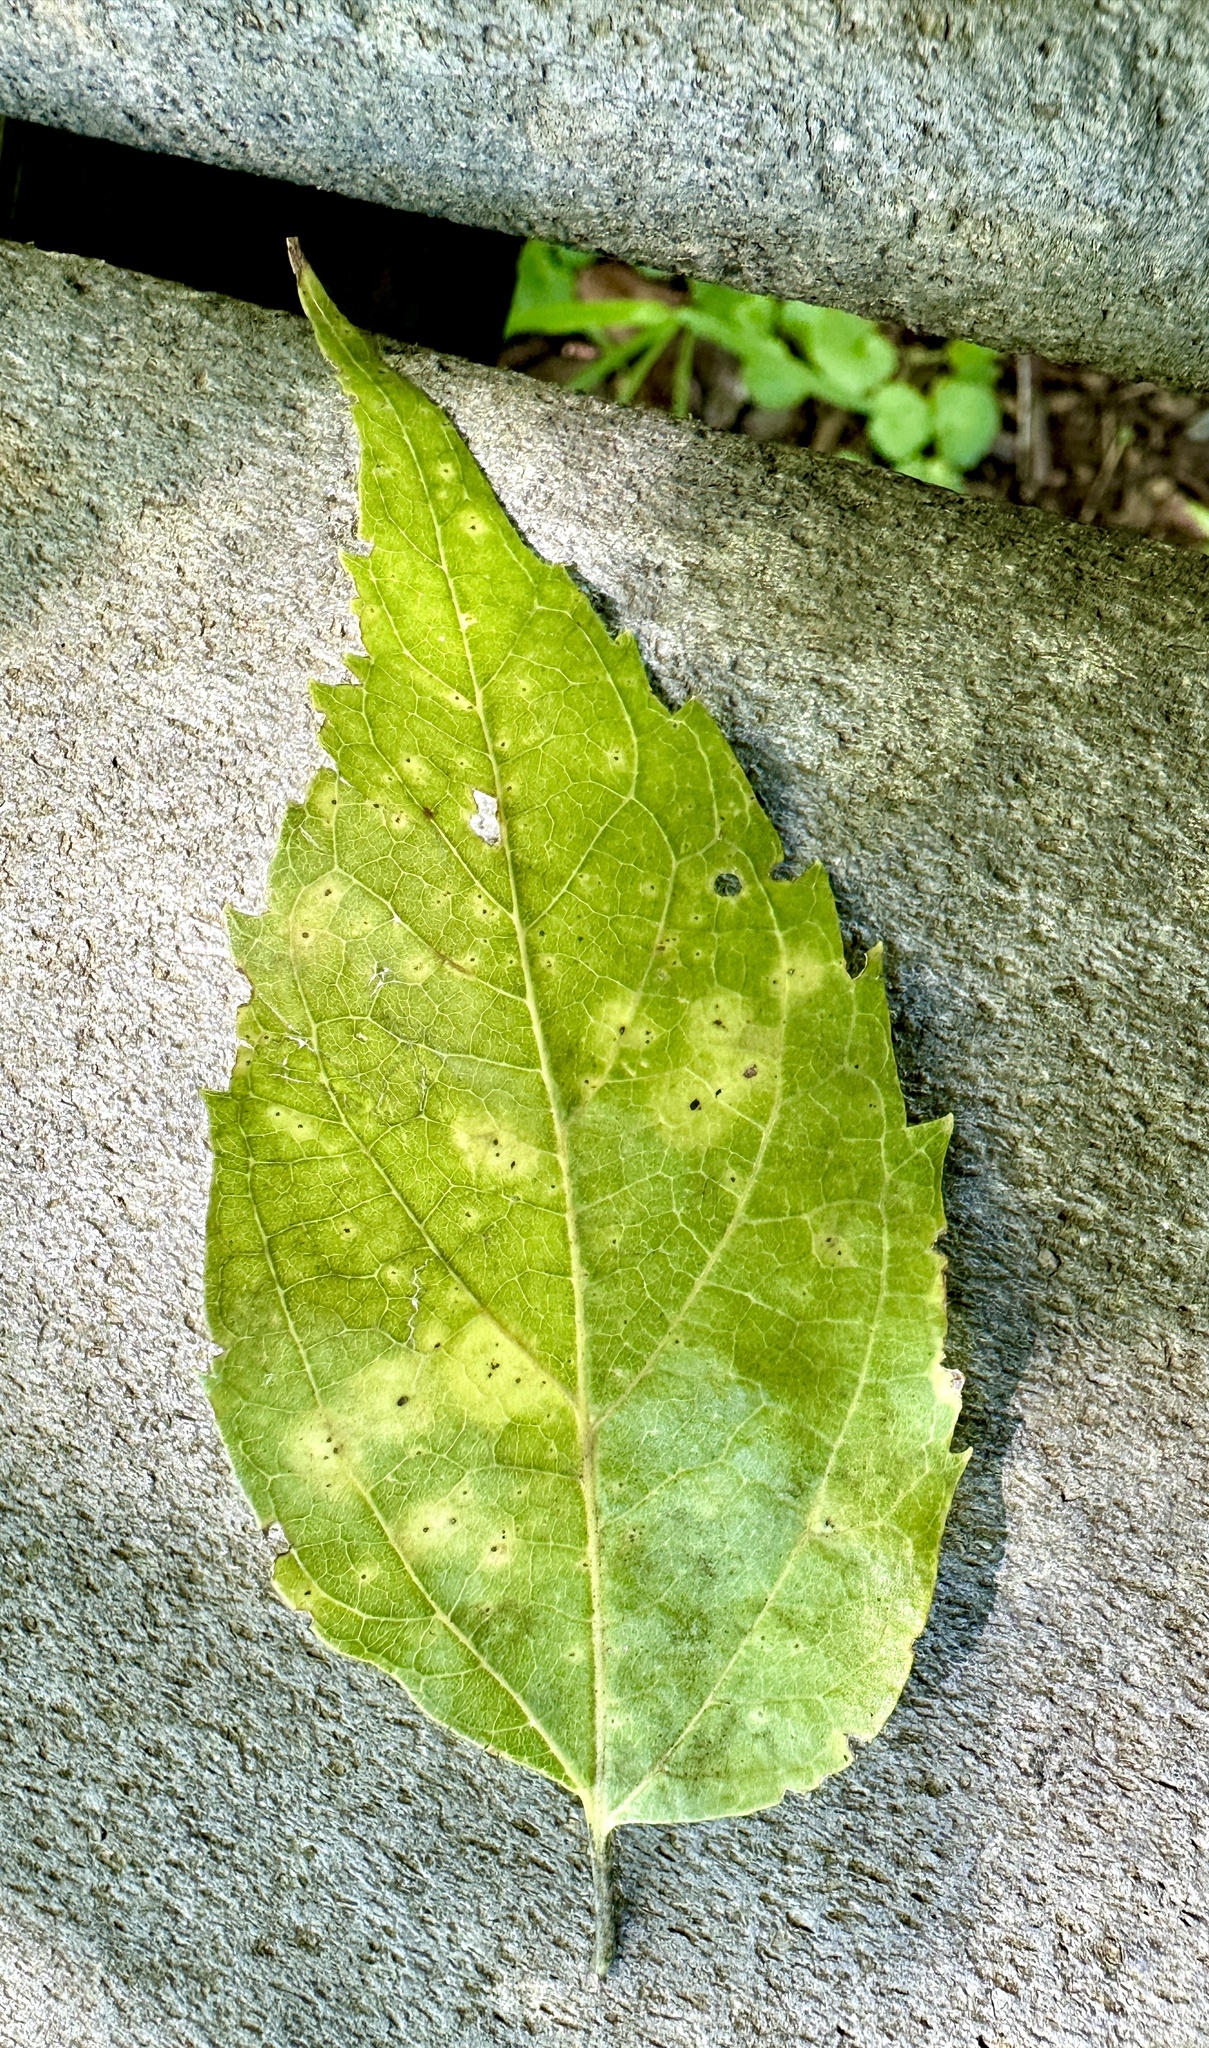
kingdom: Animalia
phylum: Arthropoda
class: Insecta
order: Hemiptera
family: Aphalaridae
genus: Pachypsylla
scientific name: Pachypsylla celtidisvesicula
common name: Hackberry blister gall psyllid
